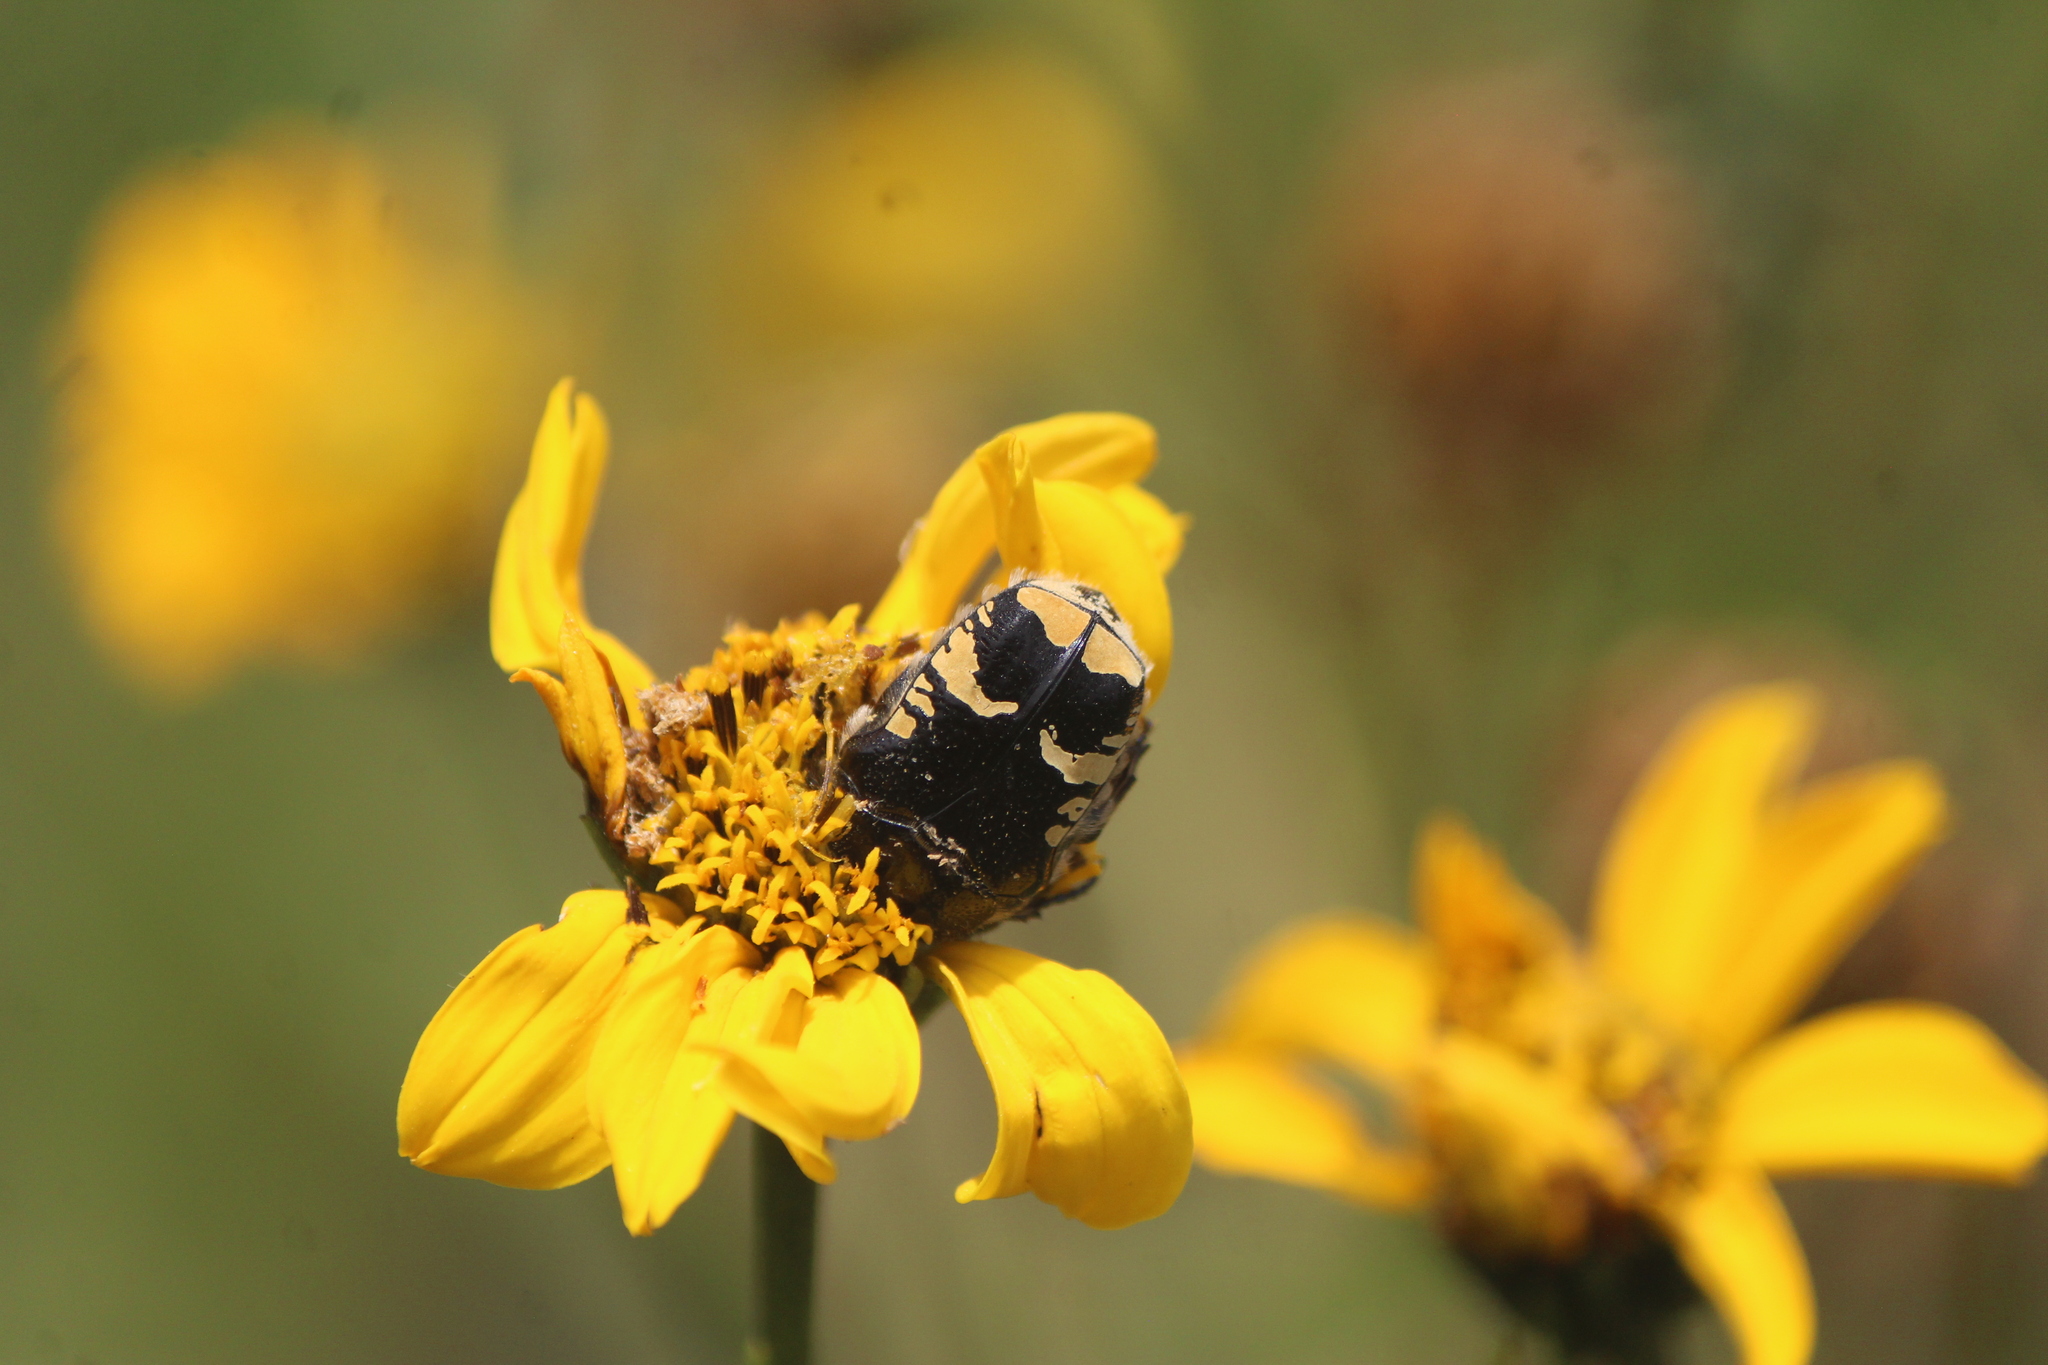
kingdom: Animalia
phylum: Arthropoda
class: Insecta
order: Coleoptera
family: Scarabaeidae
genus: Euphoria
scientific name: Euphoria biguttata
